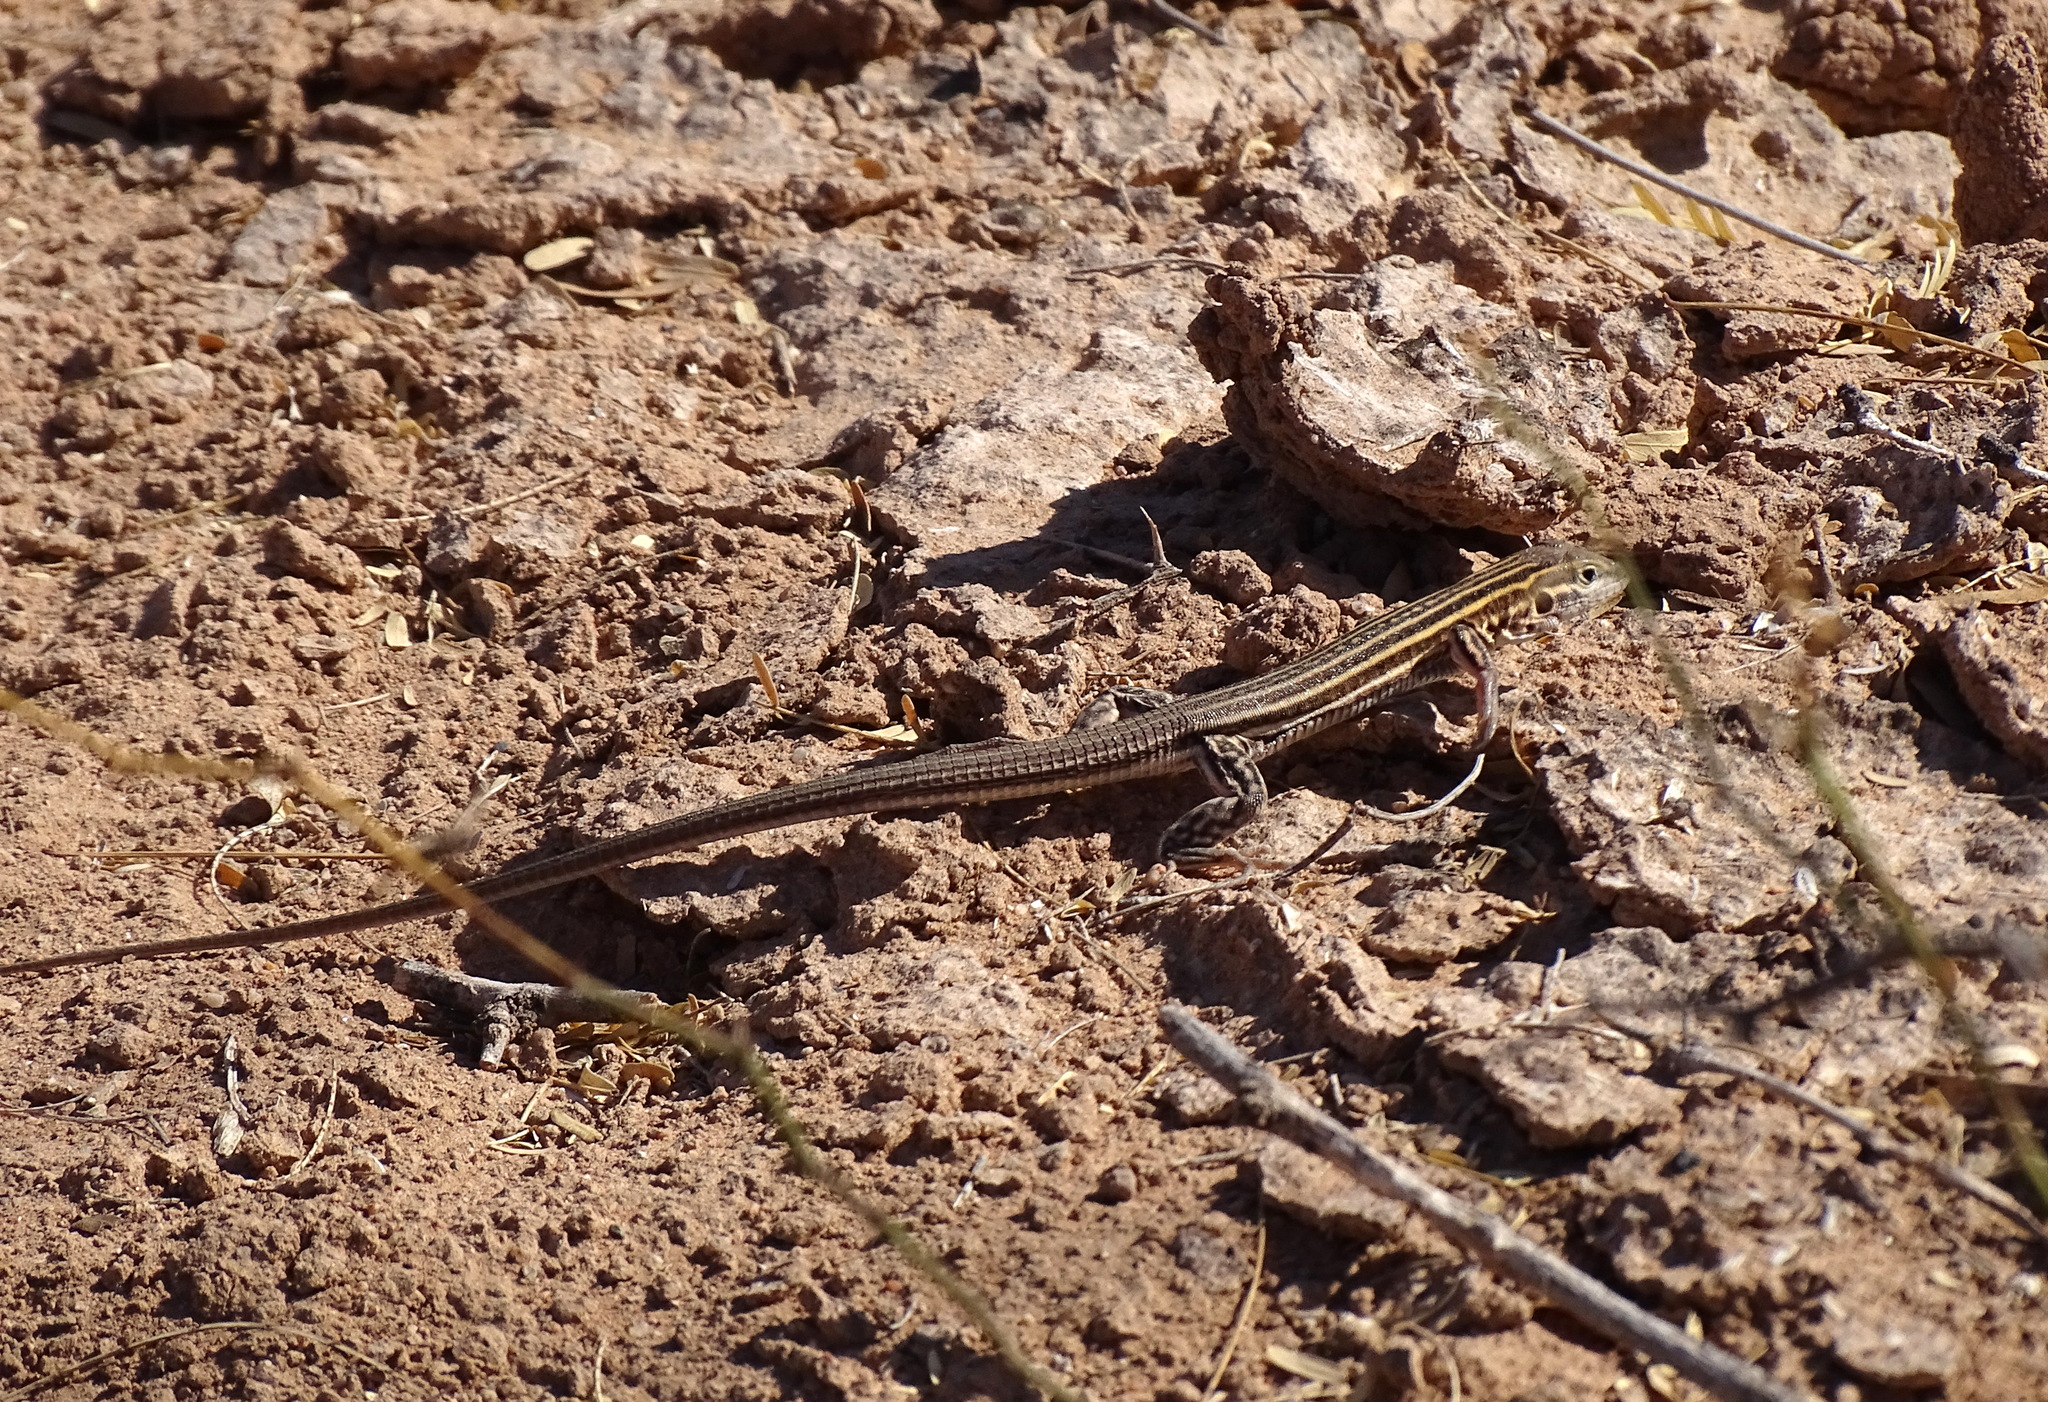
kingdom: Animalia
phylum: Chordata
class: Squamata
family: Teiidae
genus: Aspidoscelis
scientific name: Aspidoscelis sonorae
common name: Sonoran spotted whiptail
